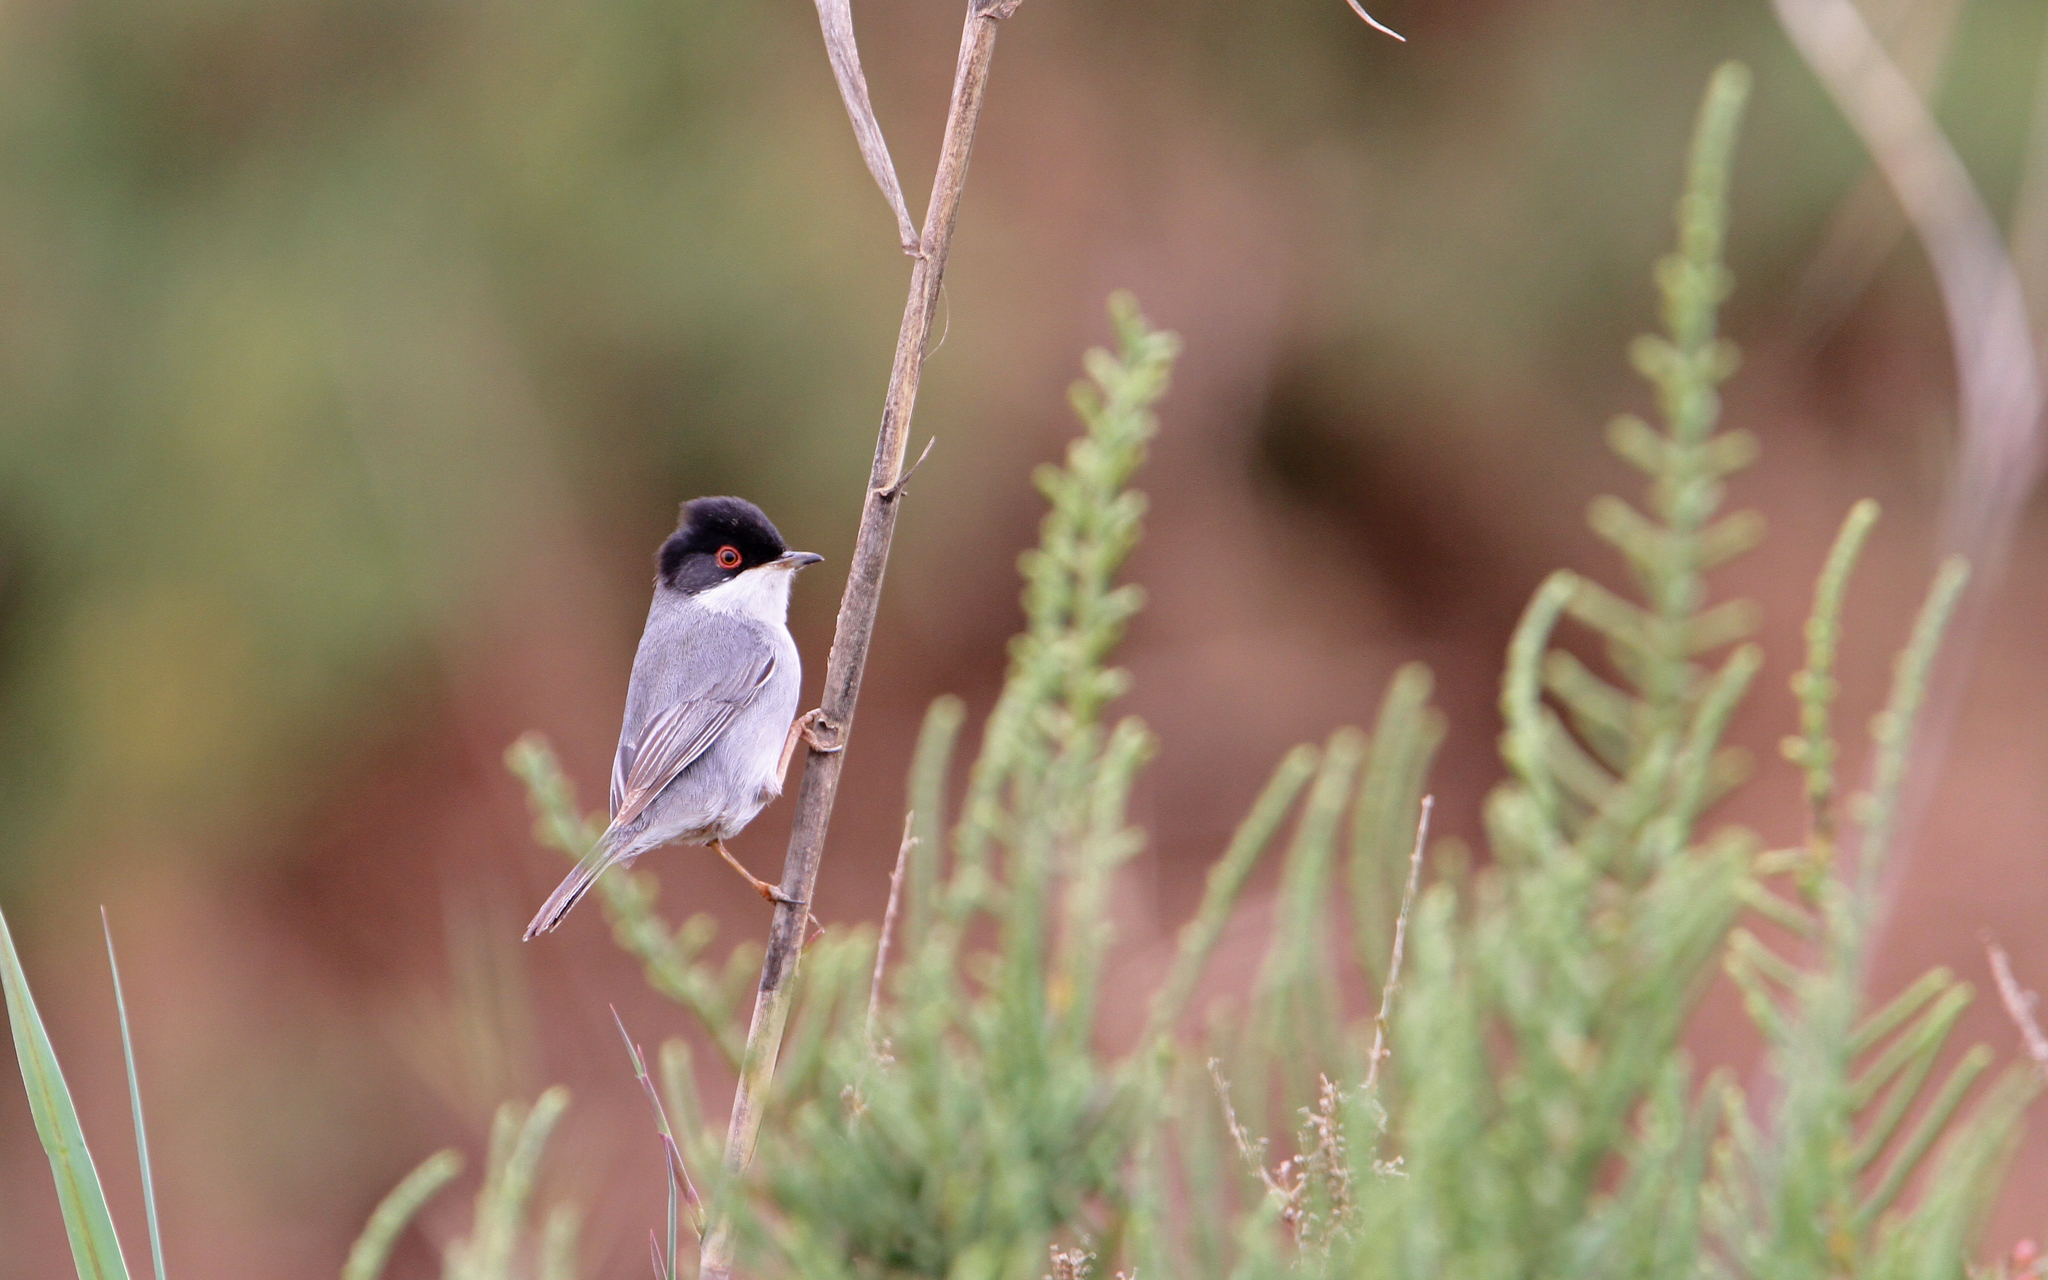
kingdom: Animalia
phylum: Chordata
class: Aves
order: Passeriformes
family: Sylviidae
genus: Curruca
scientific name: Curruca melanocephala
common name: Sardinian warbler
